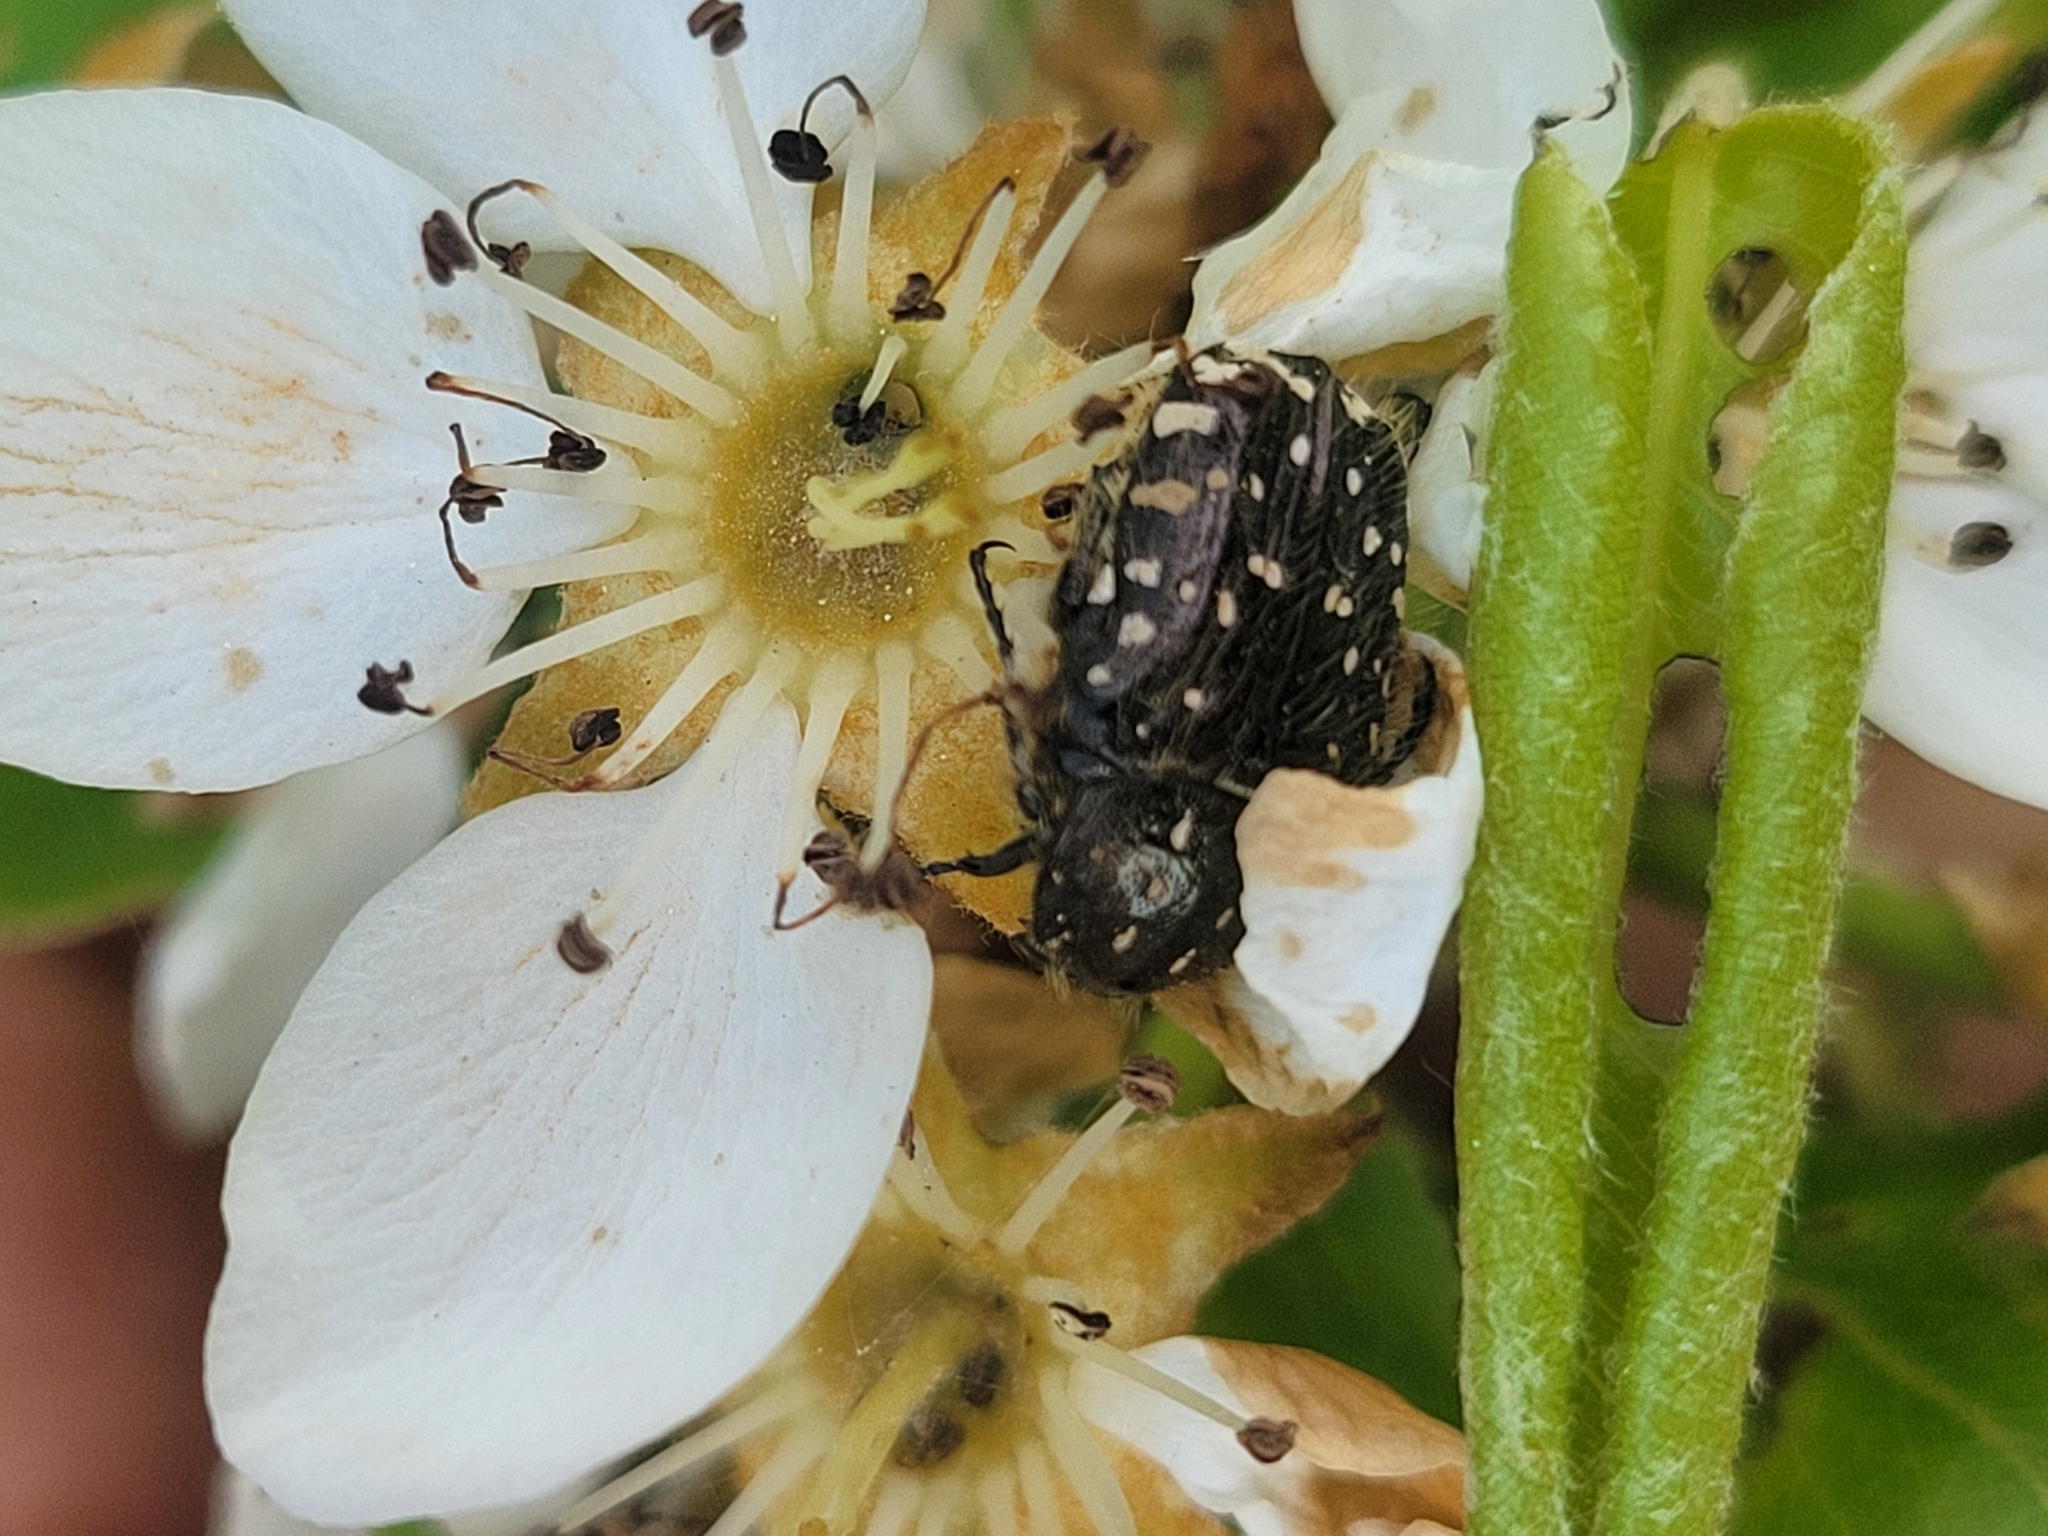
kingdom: Animalia
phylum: Arthropoda
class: Insecta
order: Coleoptera
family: Scarabaeidae
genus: Oxythyrea
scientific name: Oxythyrea funesta
